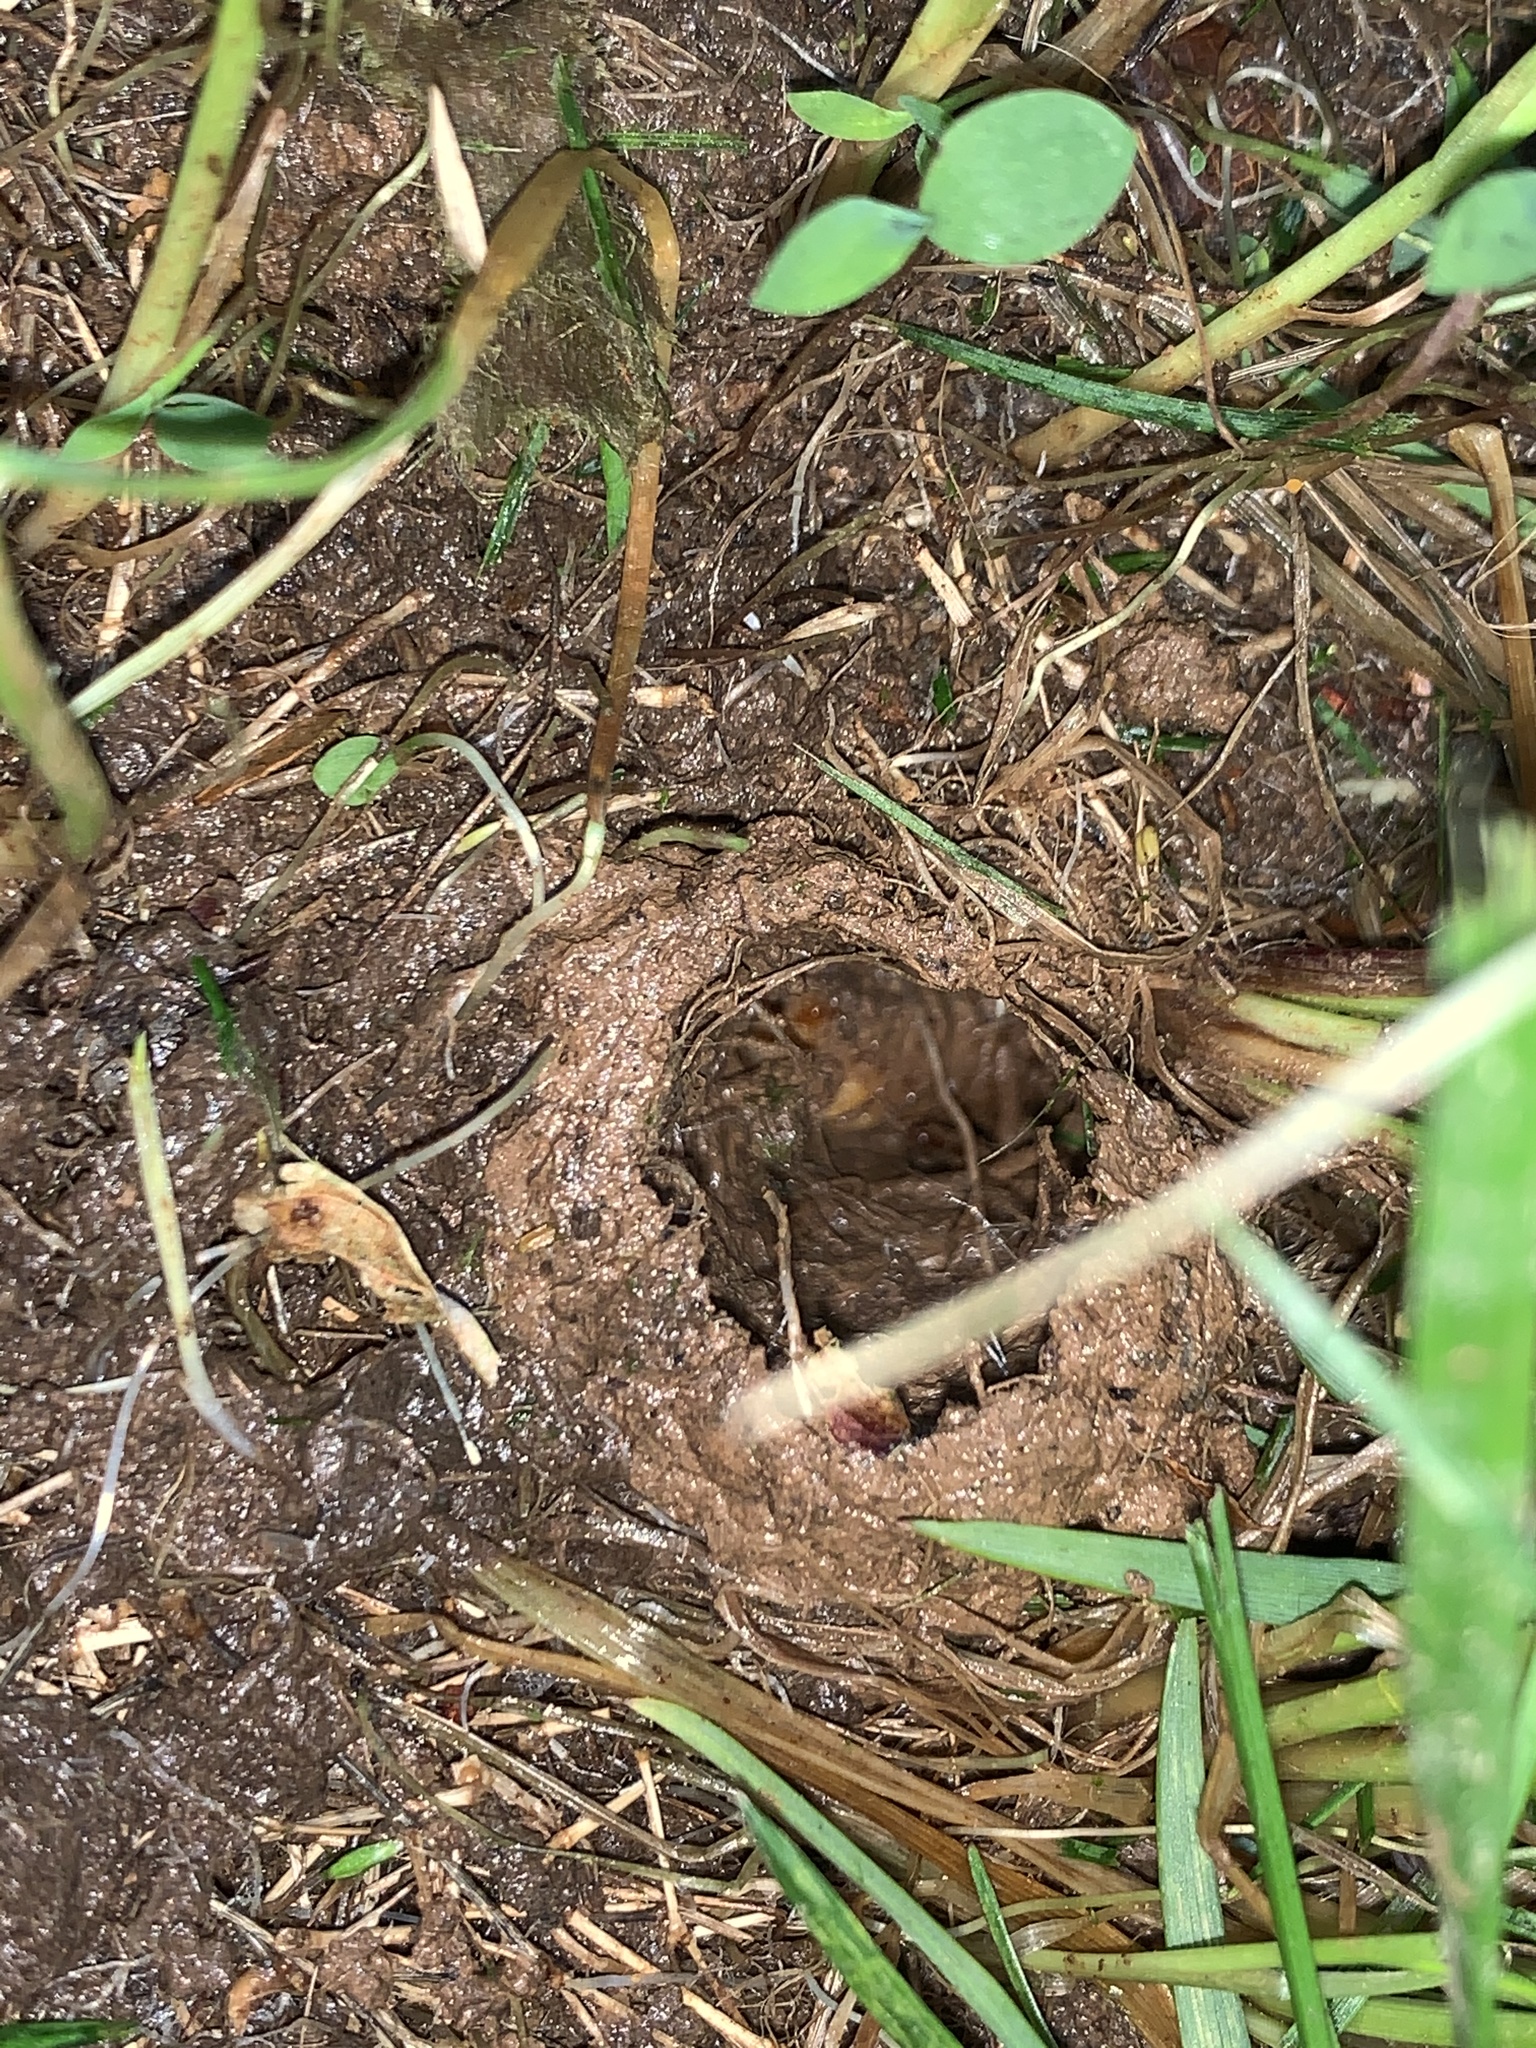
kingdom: Animalia
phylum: Arthropoda
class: Insecta
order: Hemiptera
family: Cicadidae
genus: Magicicada
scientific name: Magicicada
